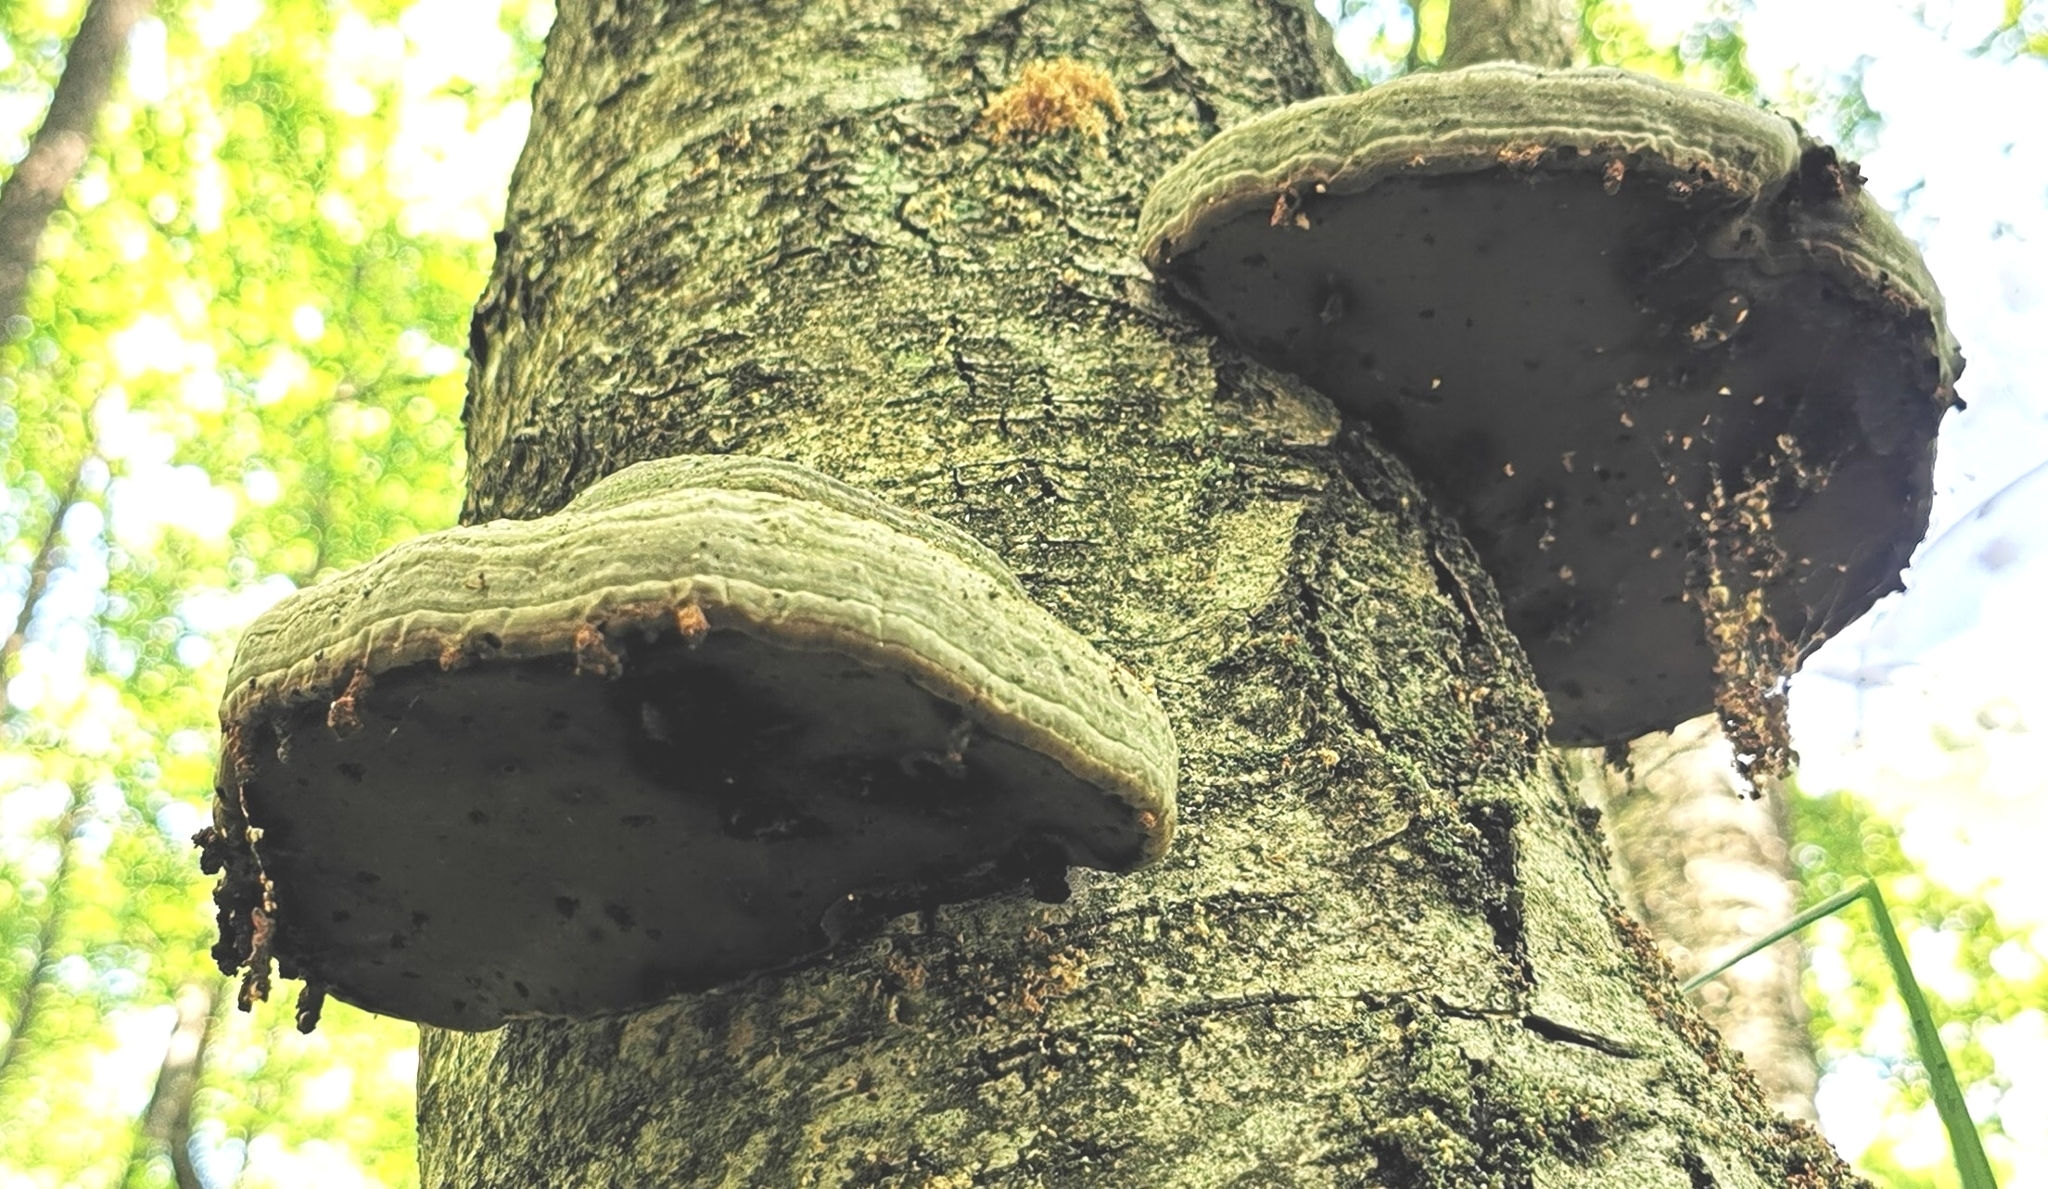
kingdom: Fungi
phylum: Basidiomycota
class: Agaricomycetes
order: Polyporales
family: Polyporaceae
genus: Fomes
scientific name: Fomes fomentarius
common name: Hoof fungus
